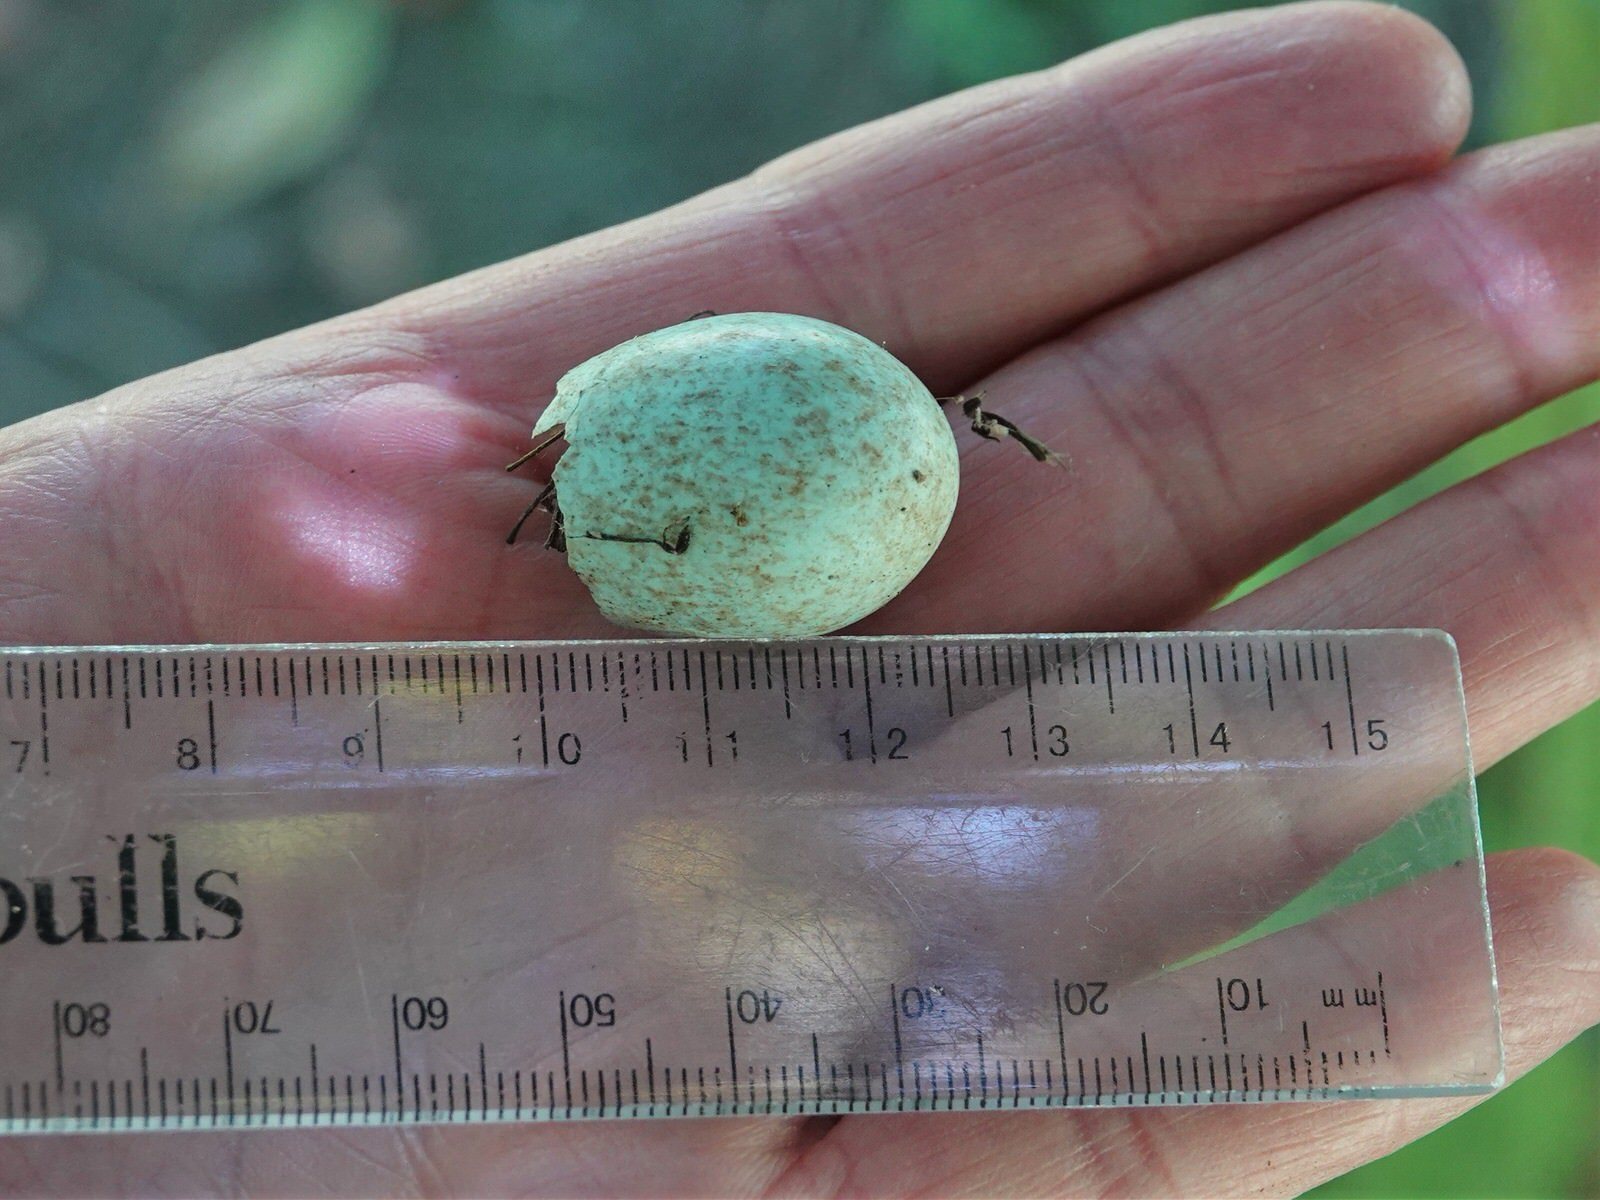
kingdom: Animalia
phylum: Chordata
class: Aves
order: Passeriformes
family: Turdidae
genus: Turdus
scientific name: Turdus merula
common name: Common blackbird
